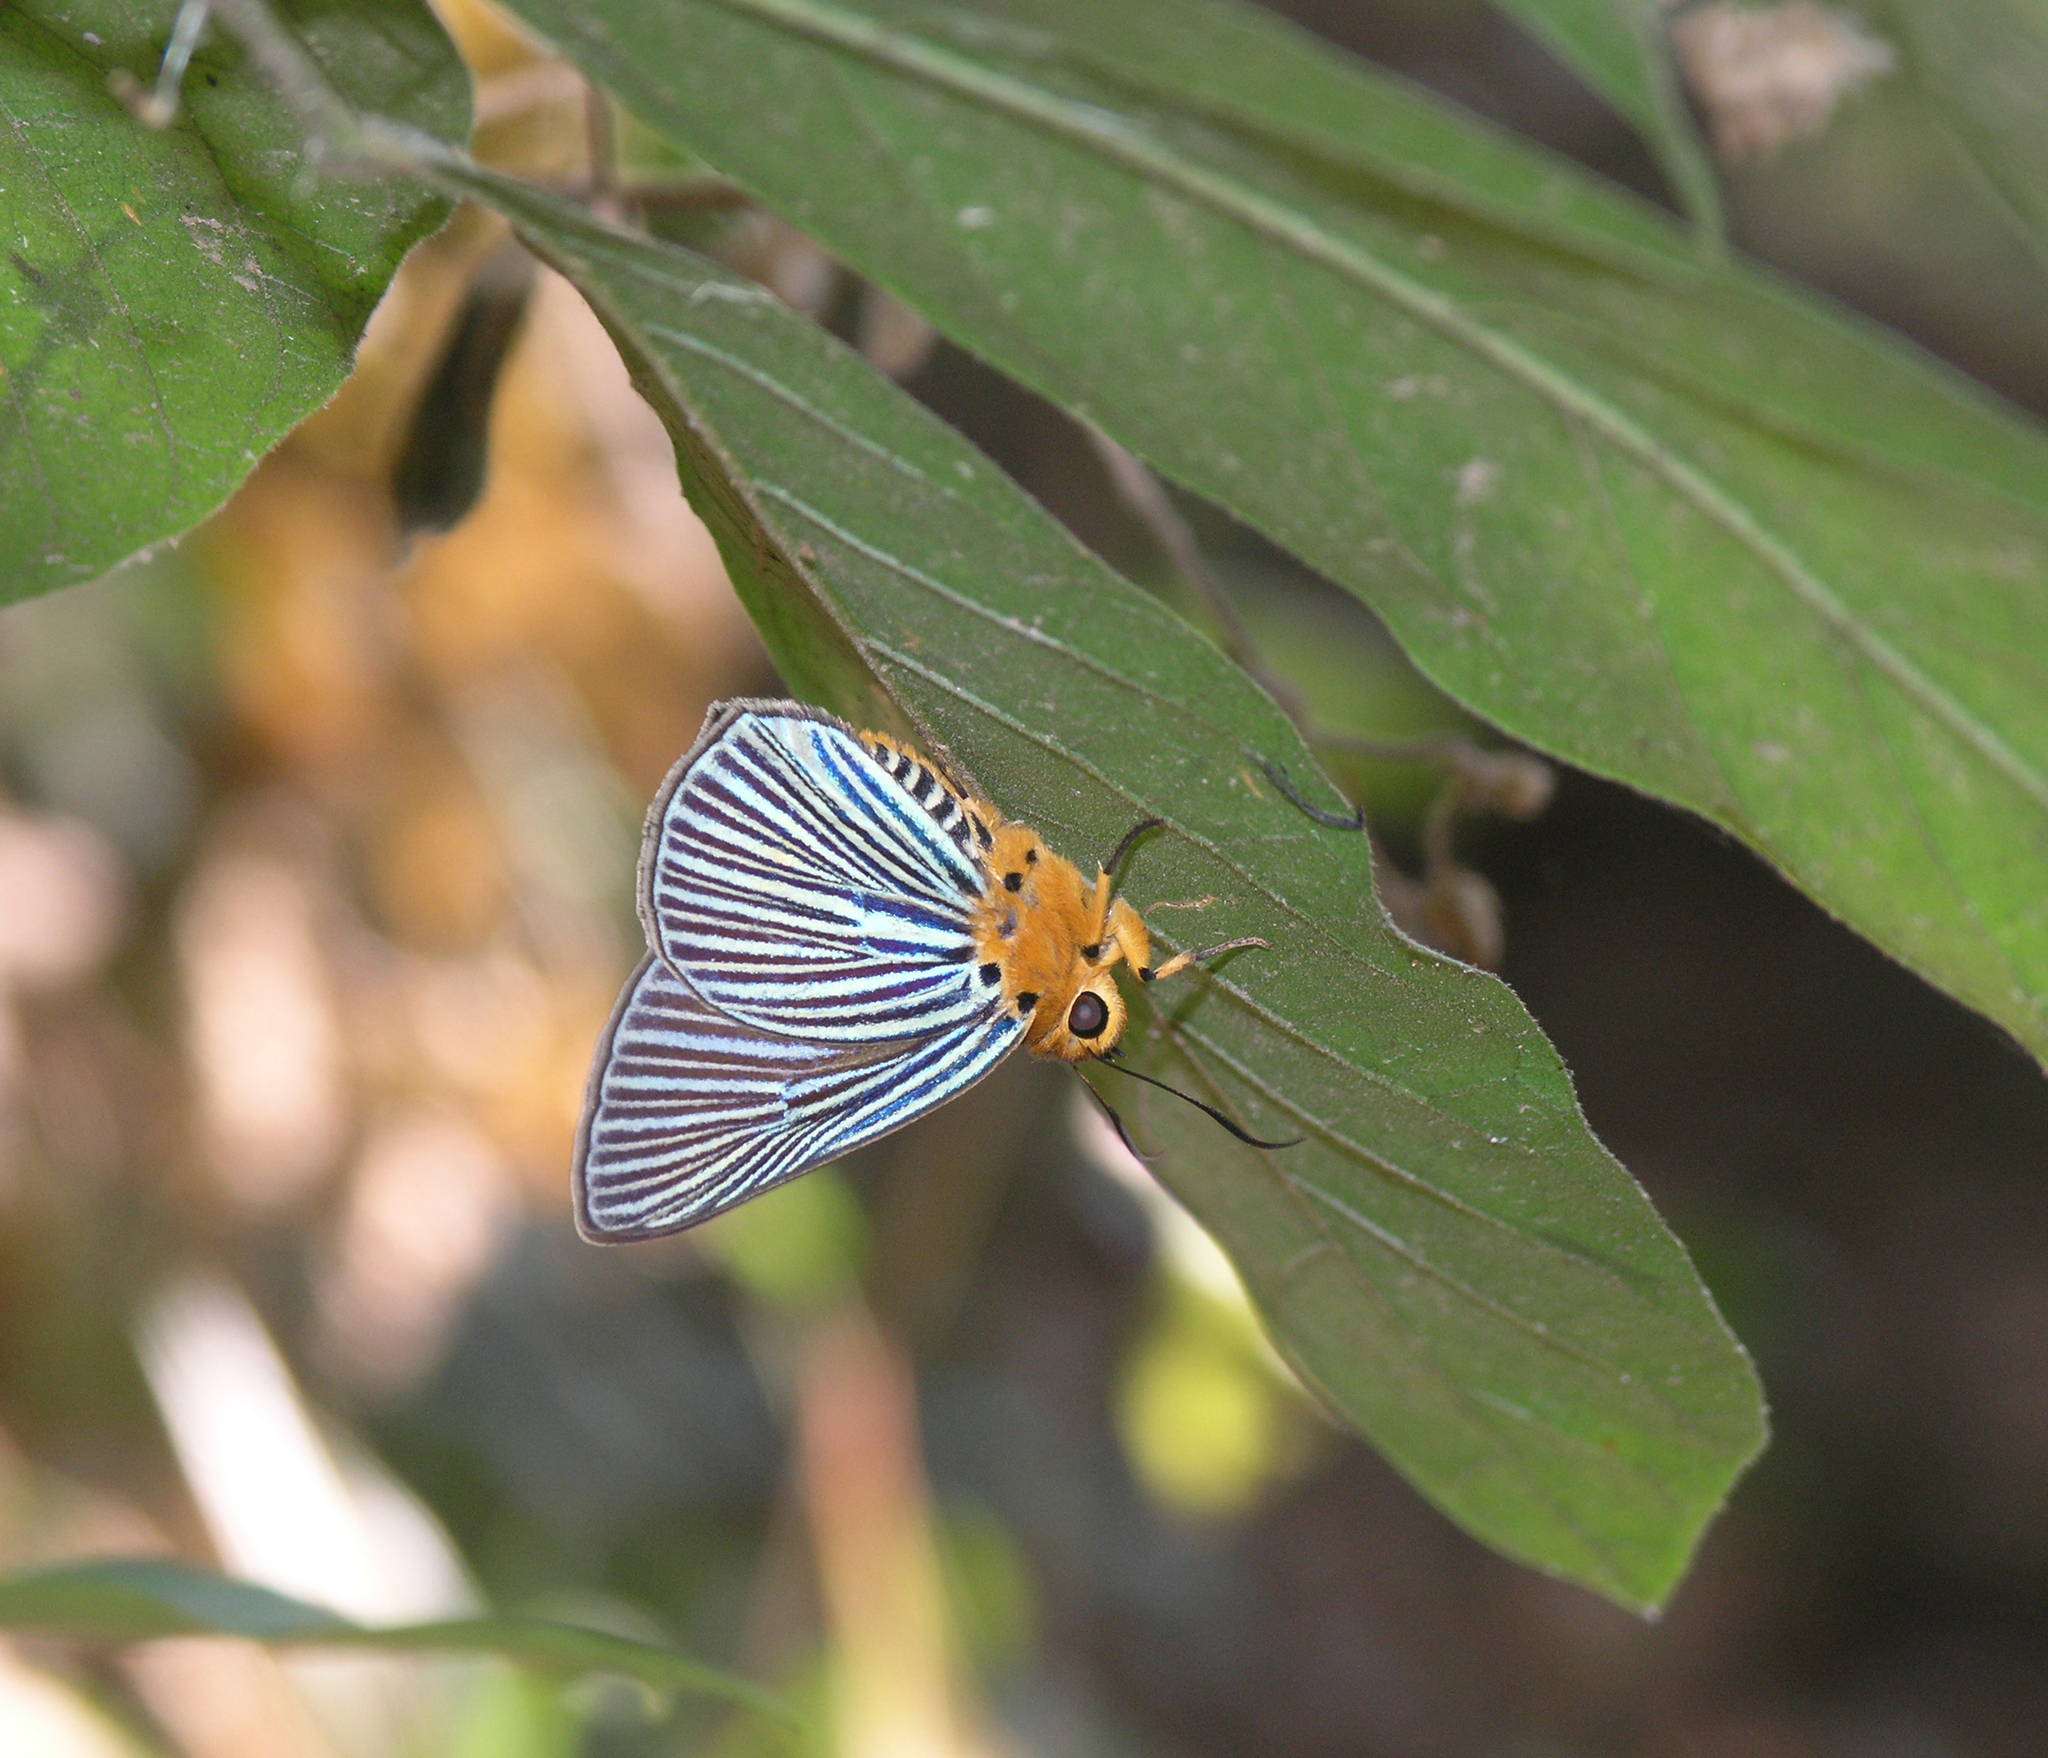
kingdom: Animalia
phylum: Arthropoda
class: Insecta
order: Lepidoptera
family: Hesperiidae
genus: Bibasis
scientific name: Bibasis amara
